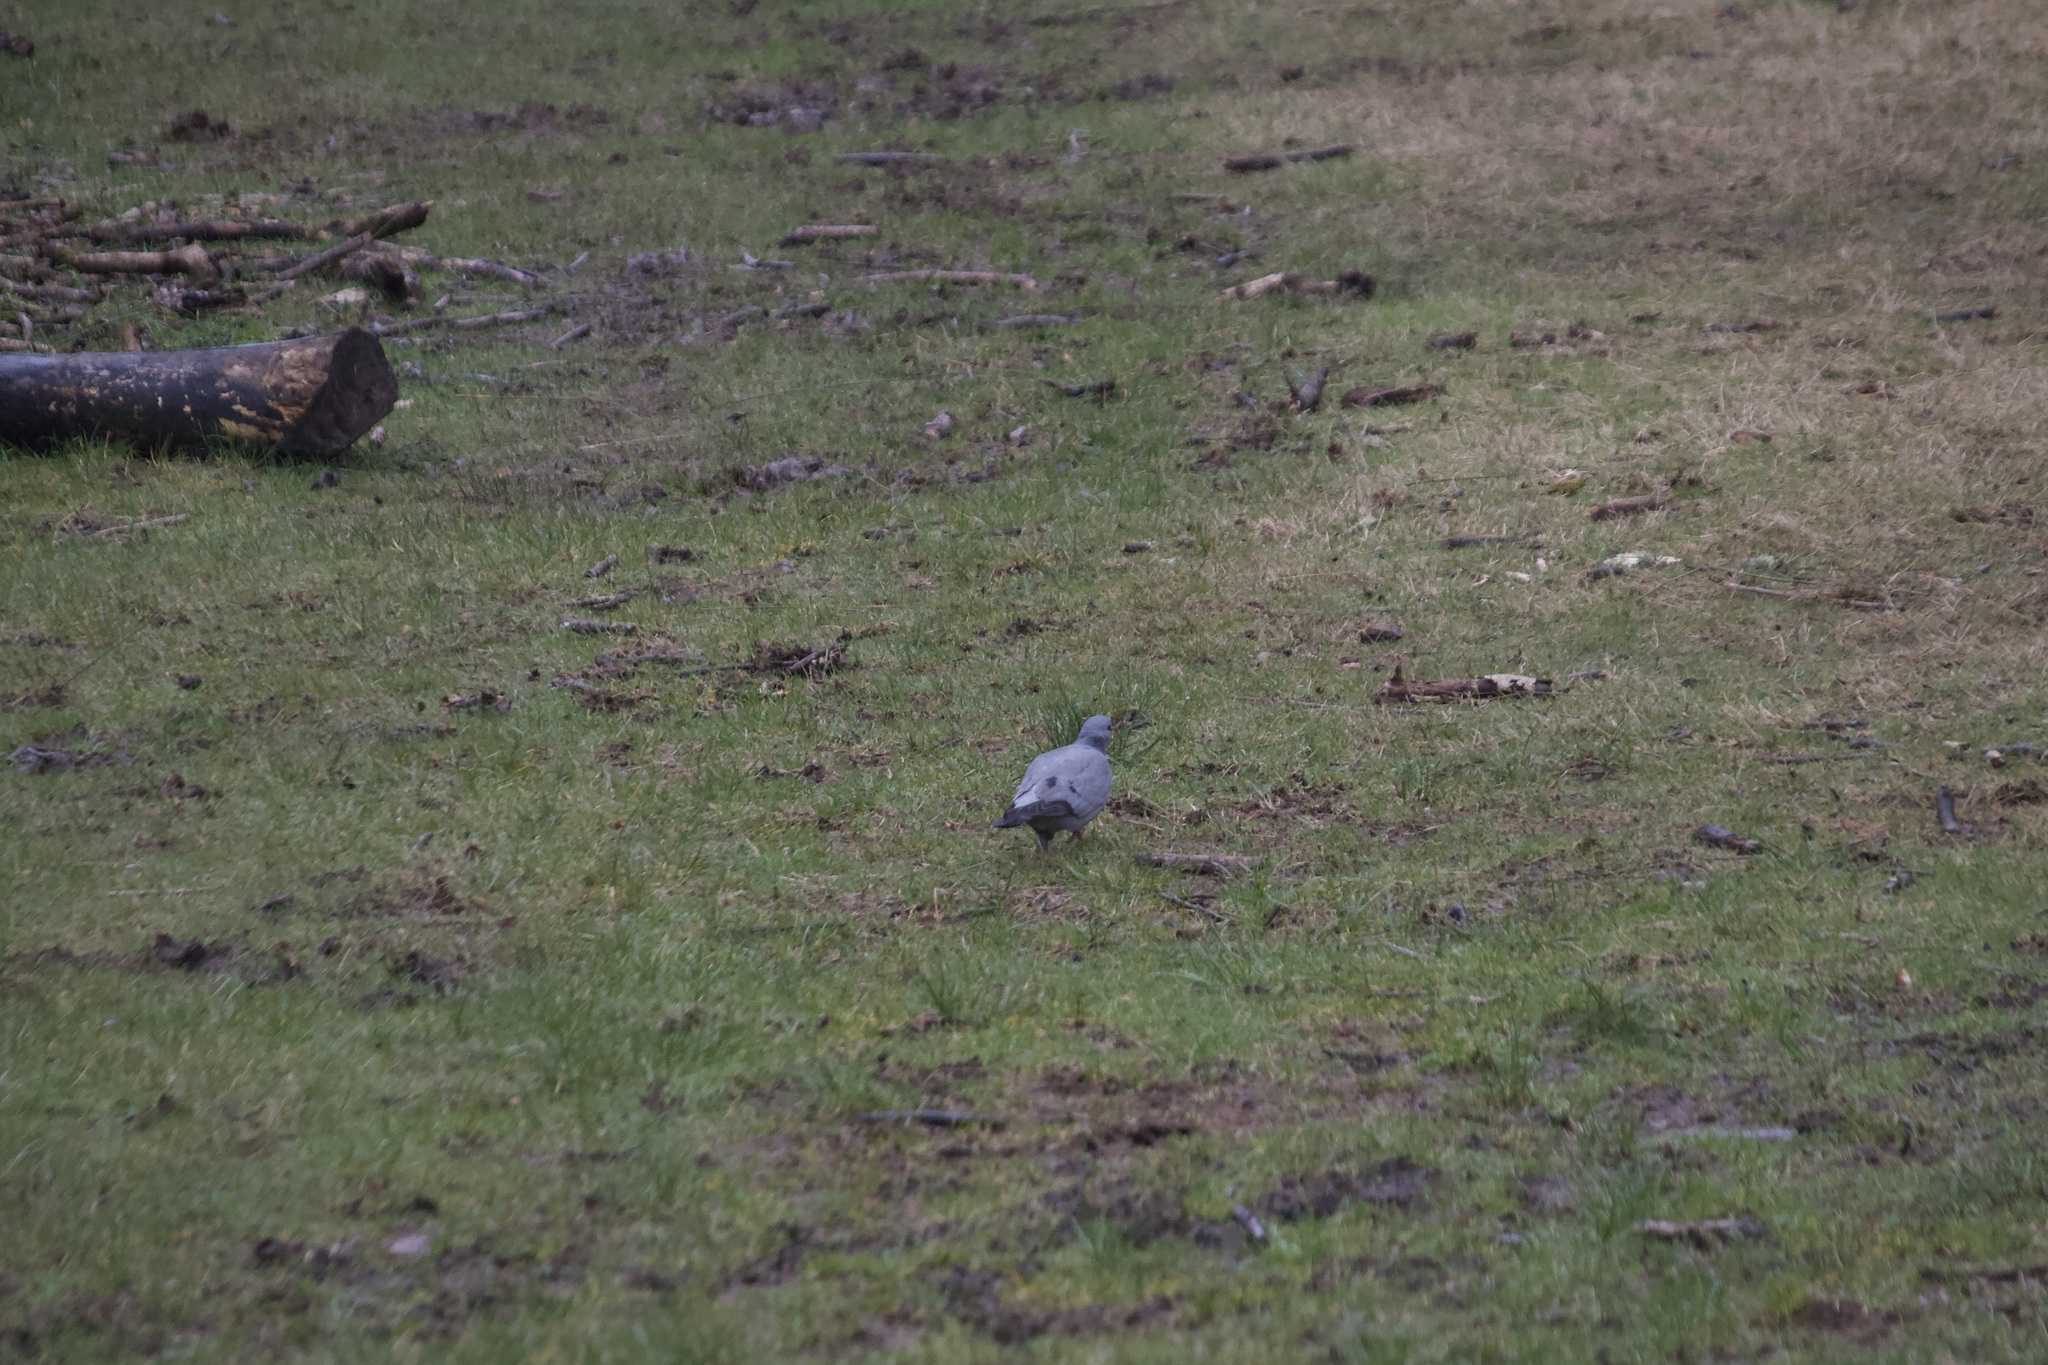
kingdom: Animalia
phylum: Chordata
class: Aves
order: Columbiformes
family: Columbidae
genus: Columba
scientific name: Columba oenas
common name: Stock dove
